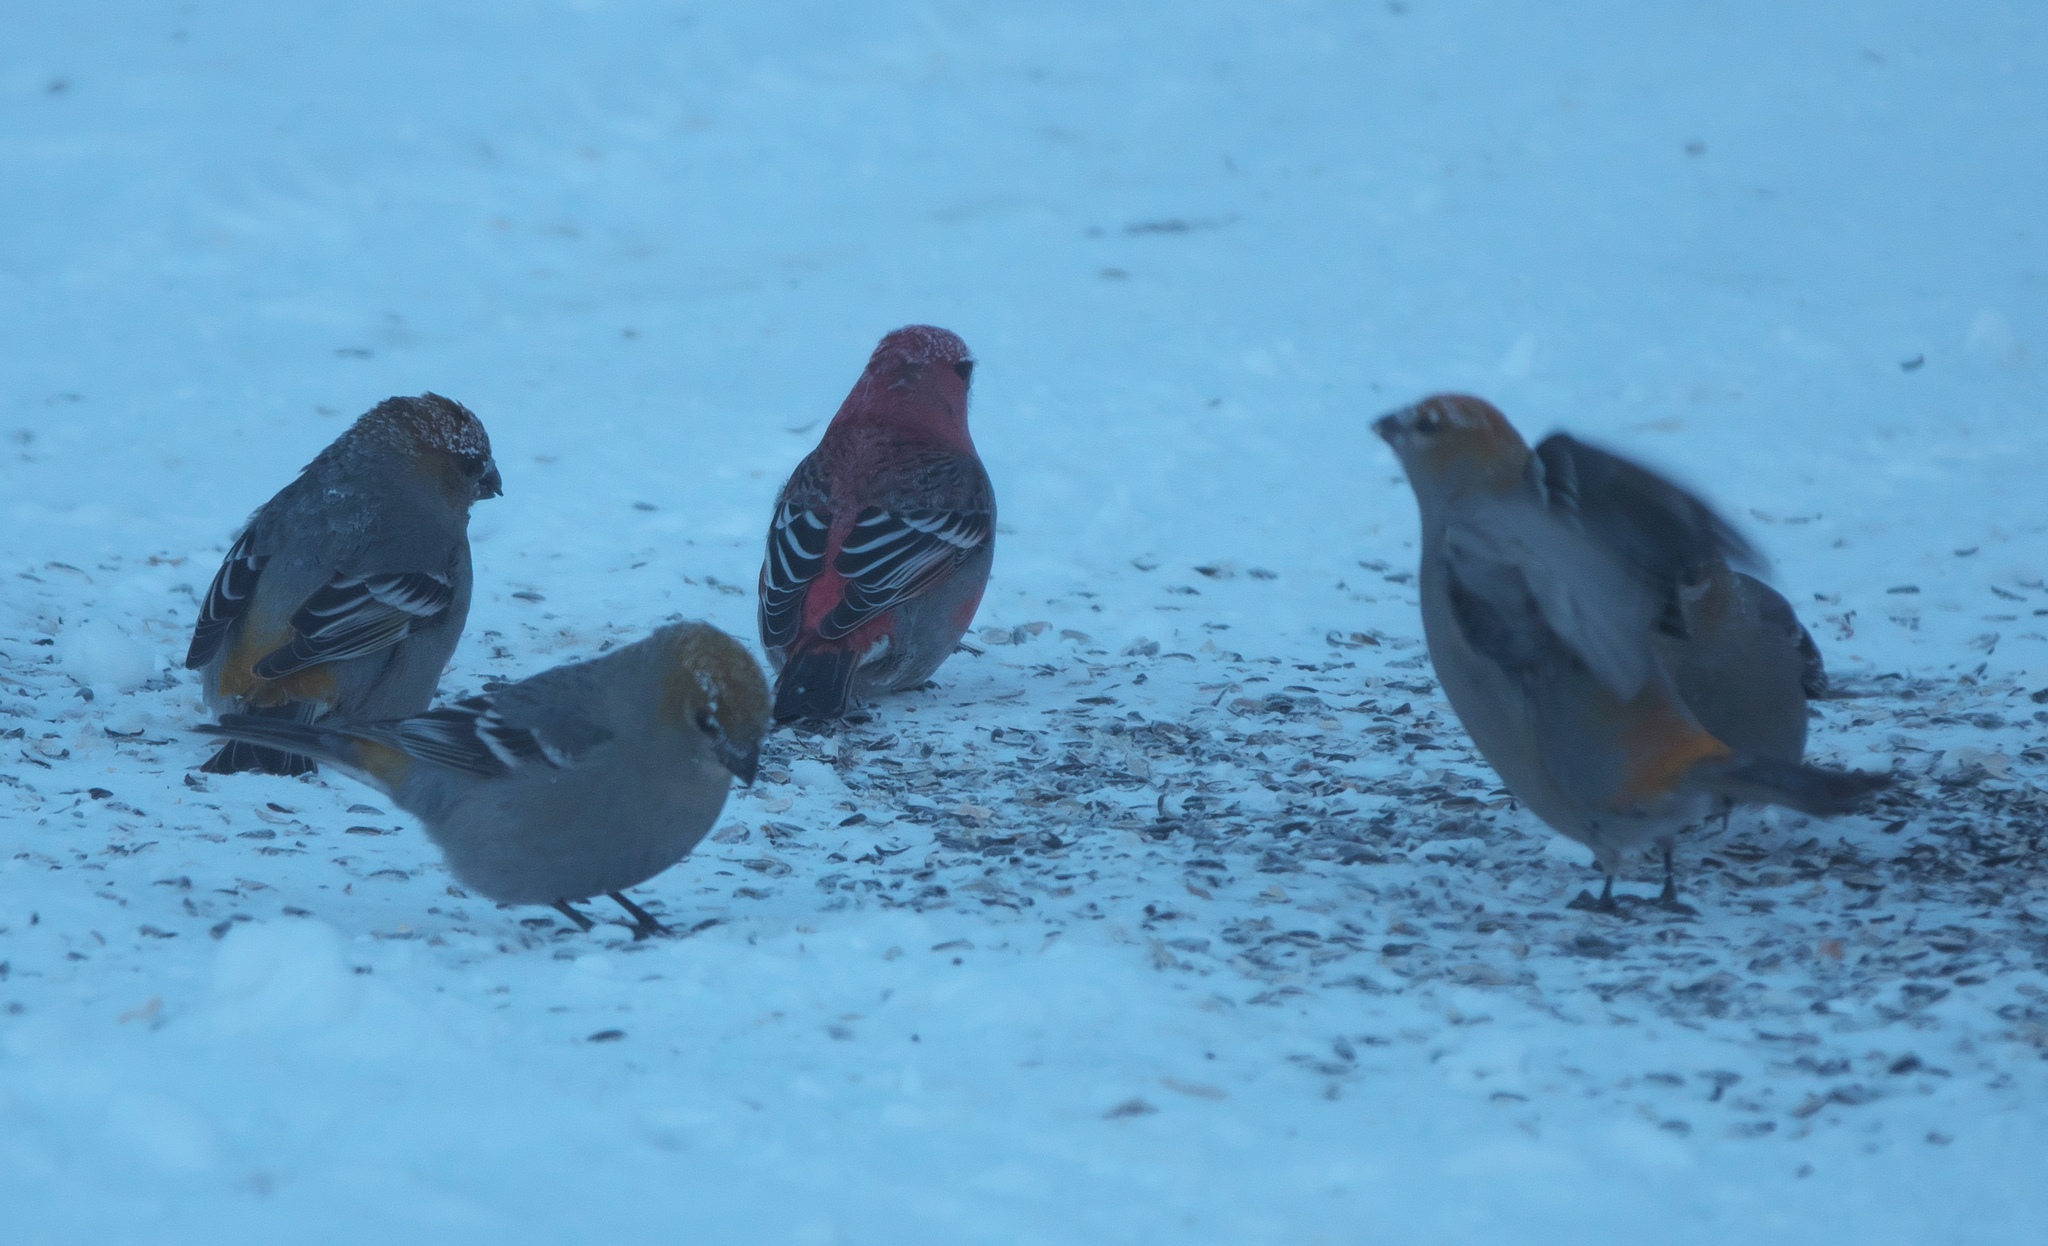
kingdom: Animalia
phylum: Chordata
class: Aves
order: Passeriformes
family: Fringillidae
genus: Pinicola
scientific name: Pinicola enucleator
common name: Pine grosbeak
